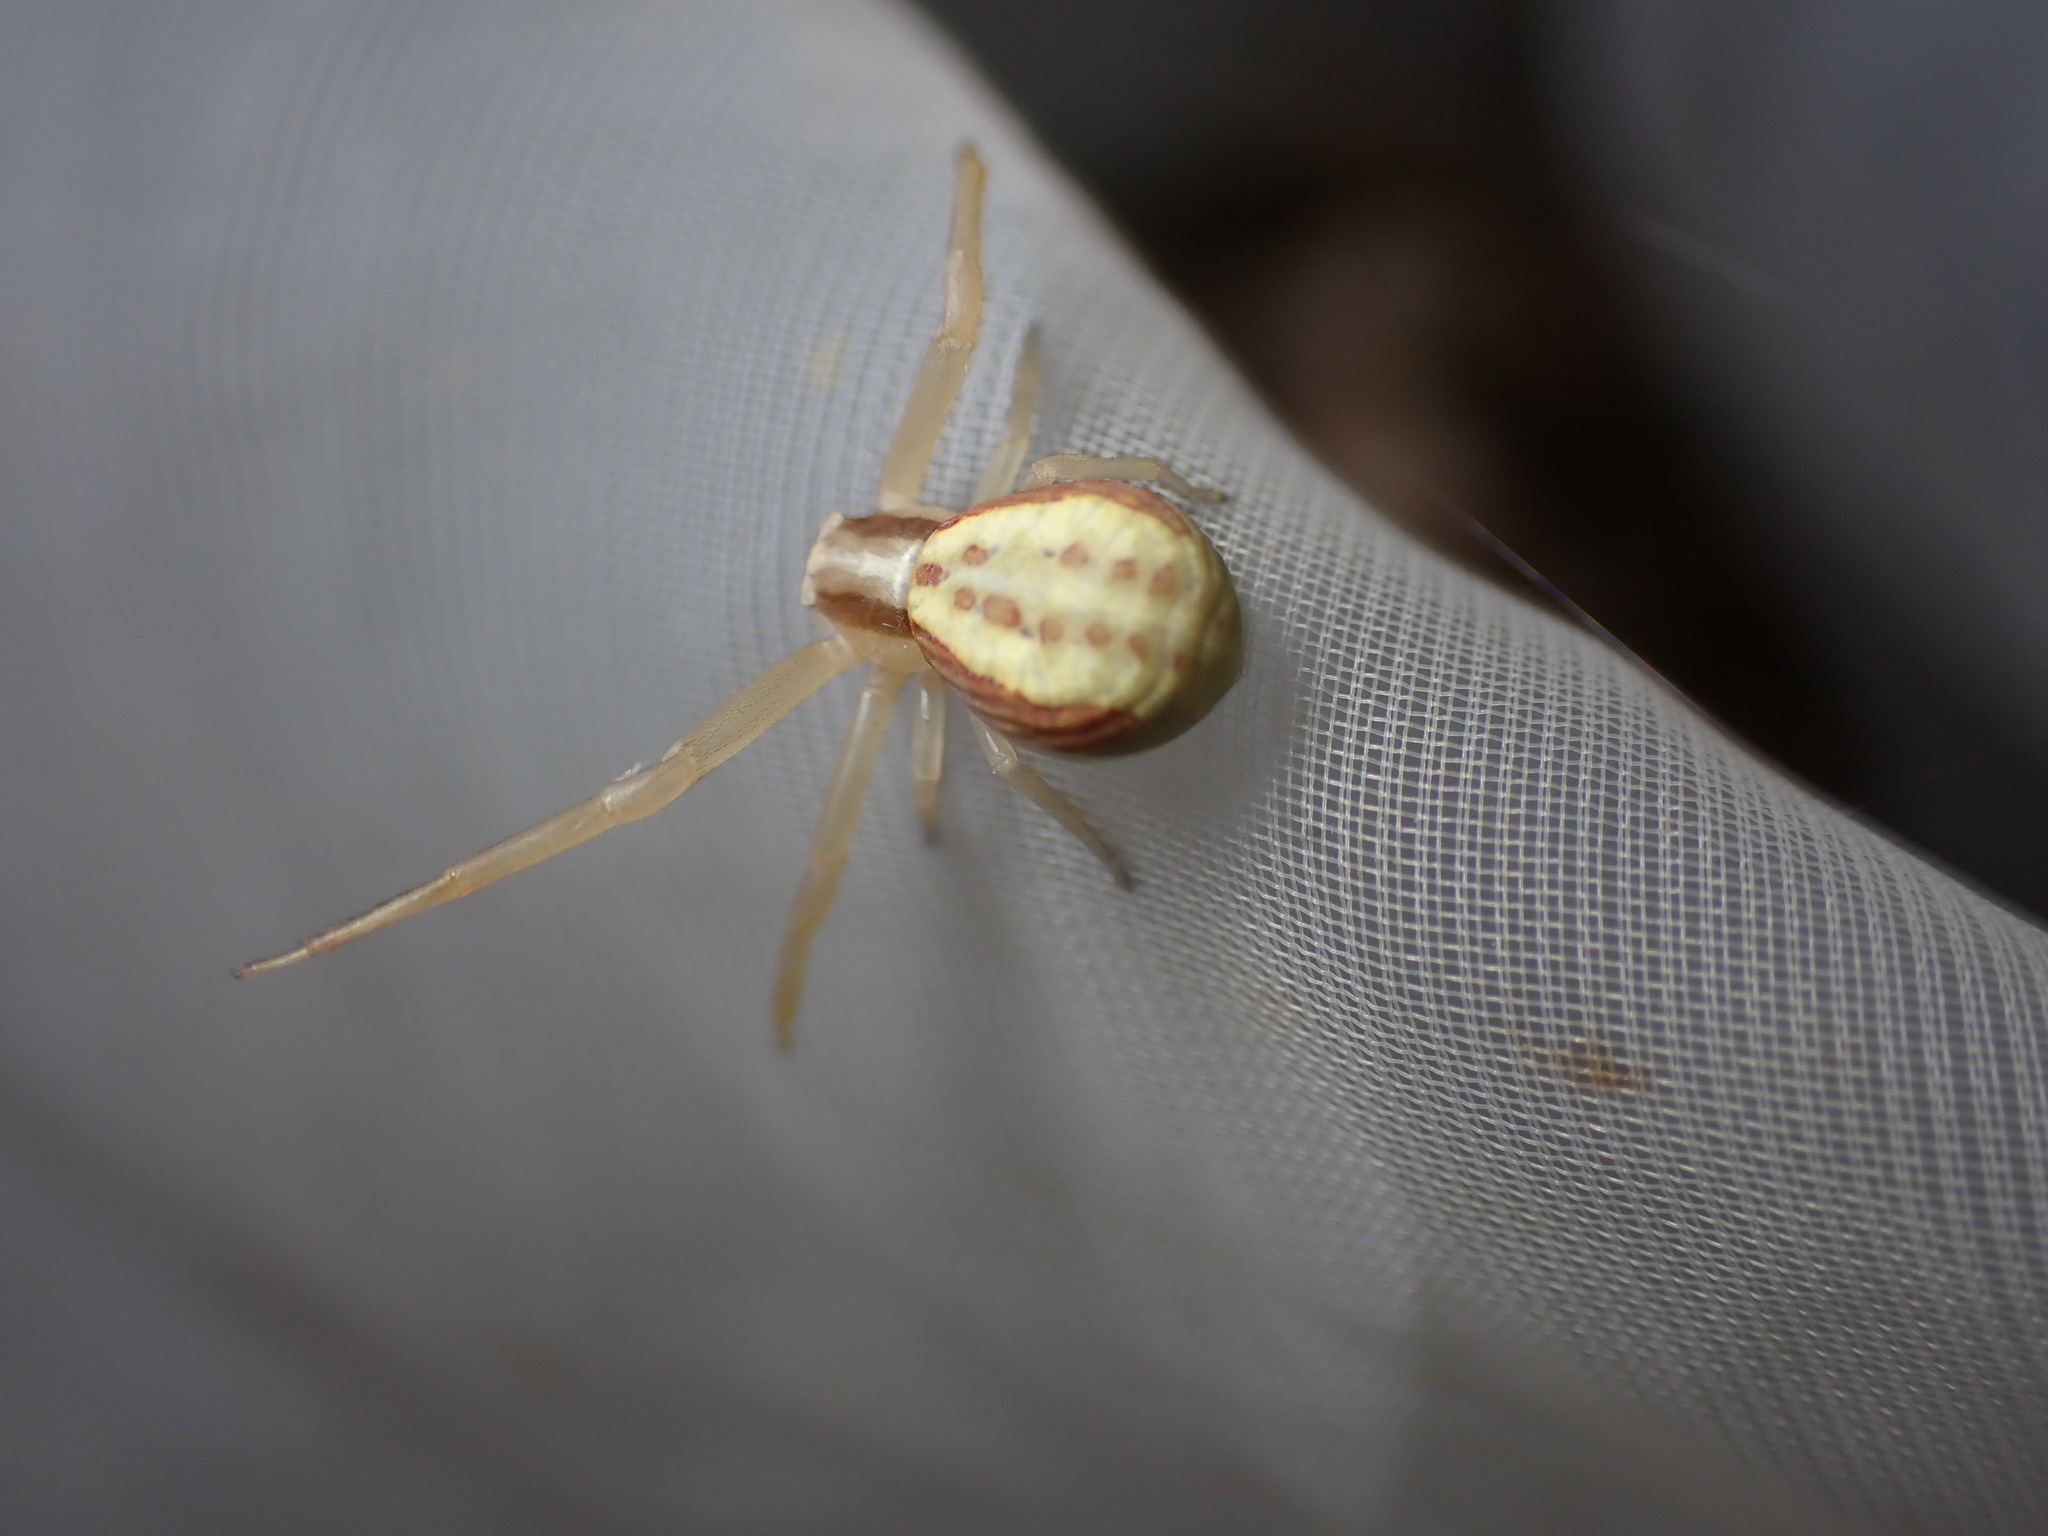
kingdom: Animalia
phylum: Arthropoda
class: Arachnida
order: Araneae
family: Thomisidae
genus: Runcinia
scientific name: Runcinia grammica
